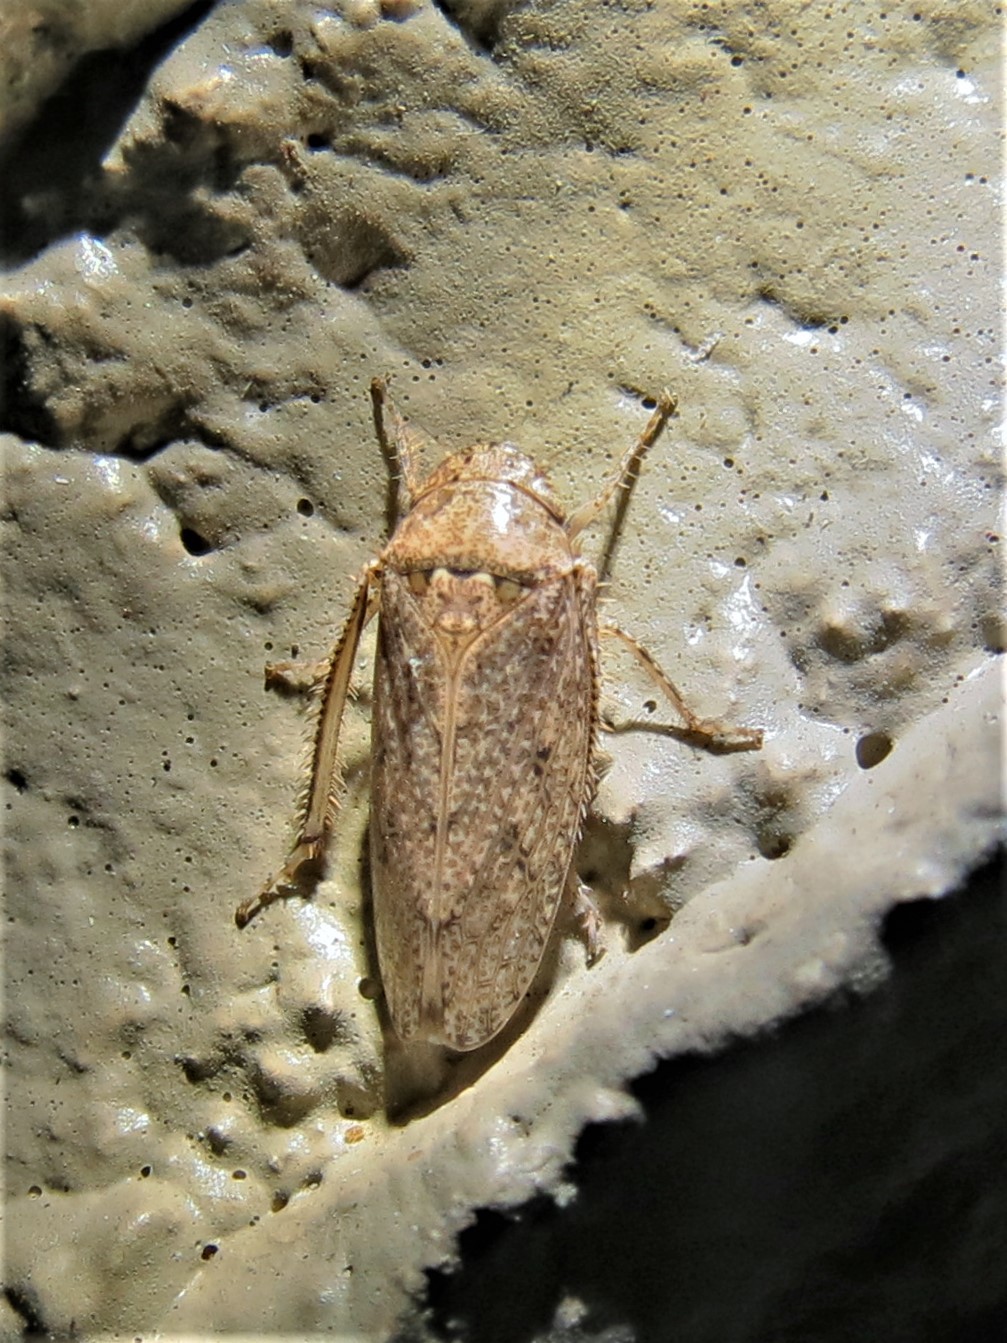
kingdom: Animalia
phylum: Arthropoda
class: Insecta
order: Hemiptera
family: Cicadellidae
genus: Curtara
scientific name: Curtara insularis
